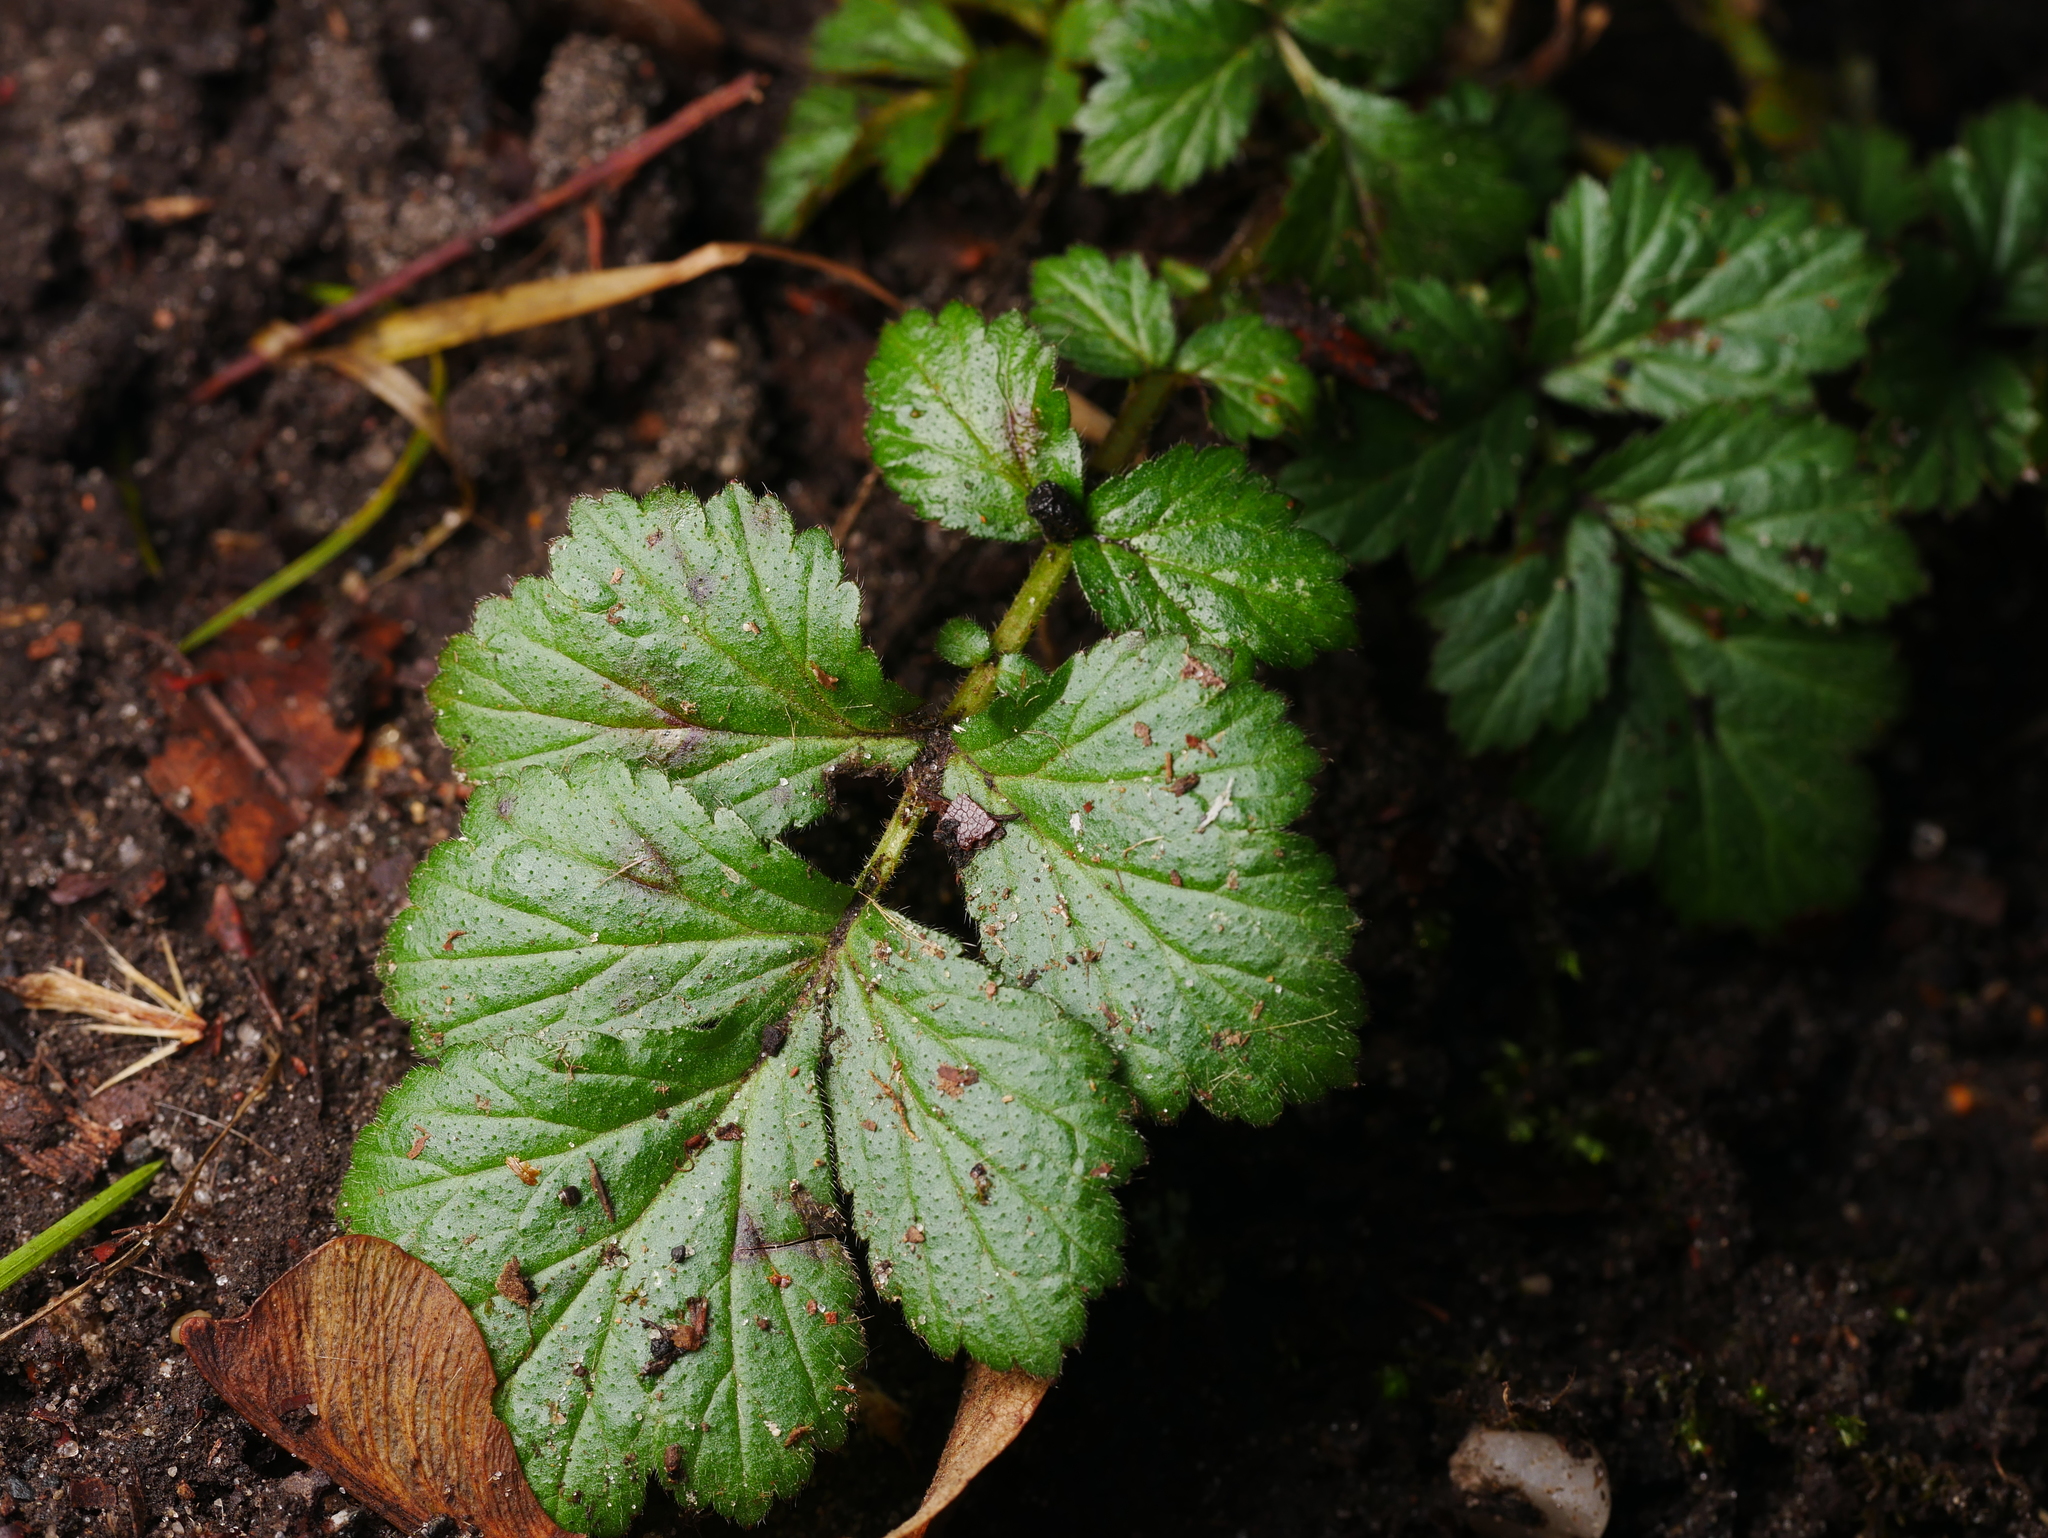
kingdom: Plantae
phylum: Tracheophyta
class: Magnoliopsida
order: Rosales
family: Rosaceae
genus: Geum
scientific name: Geum urbanum
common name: Wood avens
